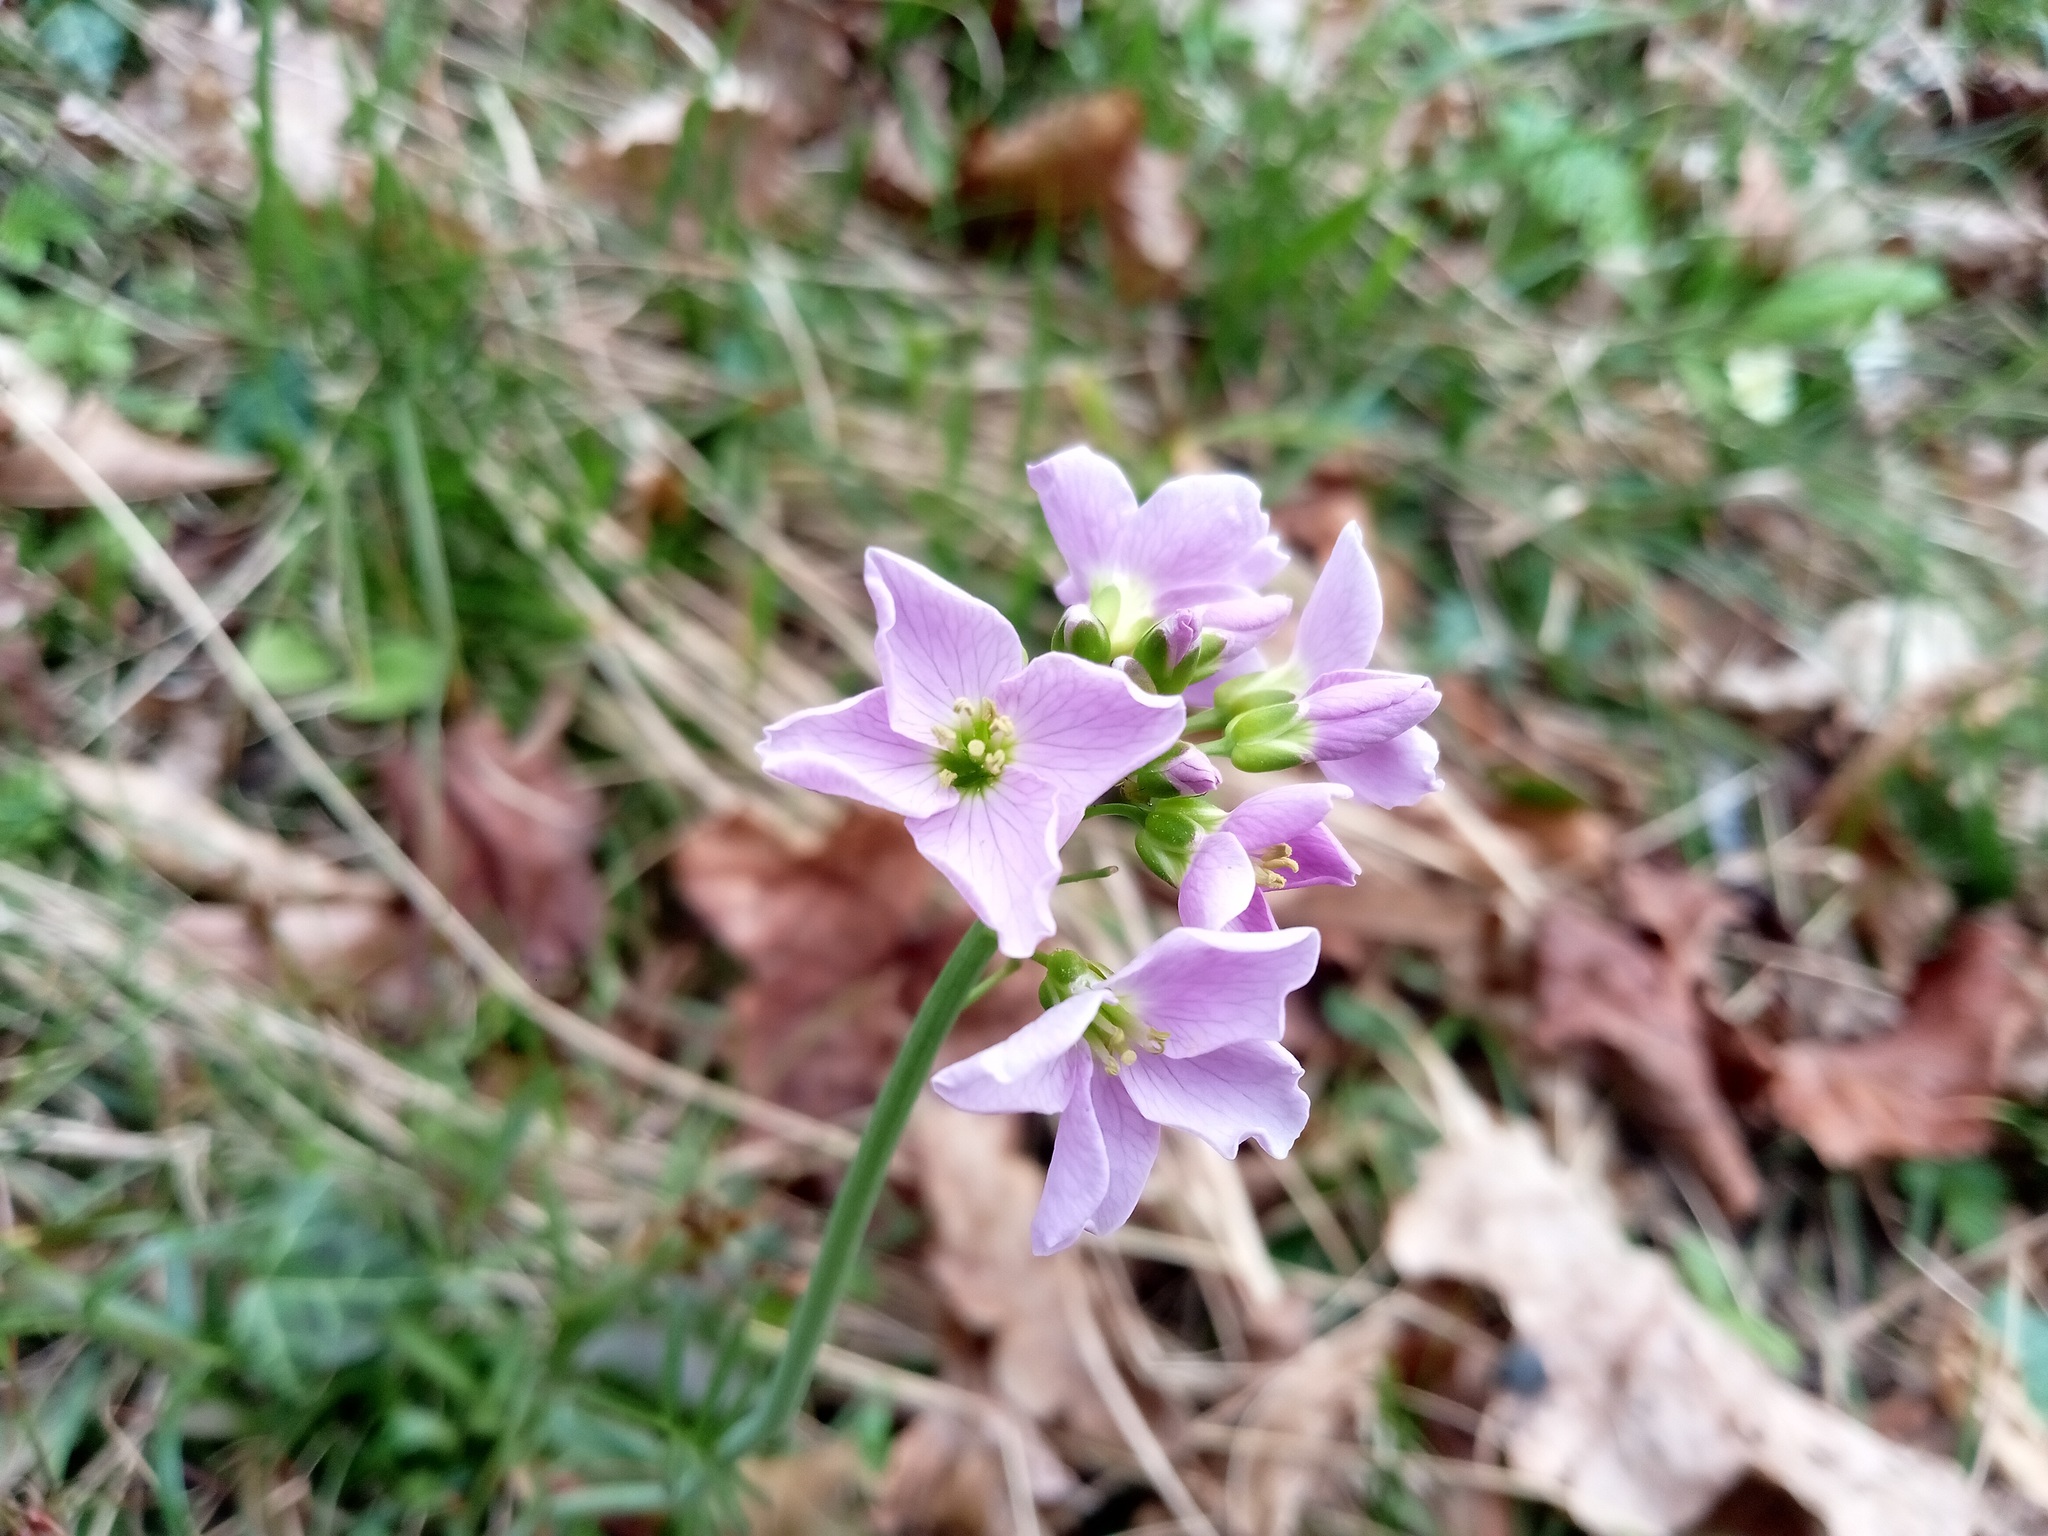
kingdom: Plantae
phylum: Tracheophyta
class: Magnoliopsida
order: Brassicales
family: Brassicaceae
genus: Cardamine
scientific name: Cardamine pratensis
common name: Cuckoo flower
